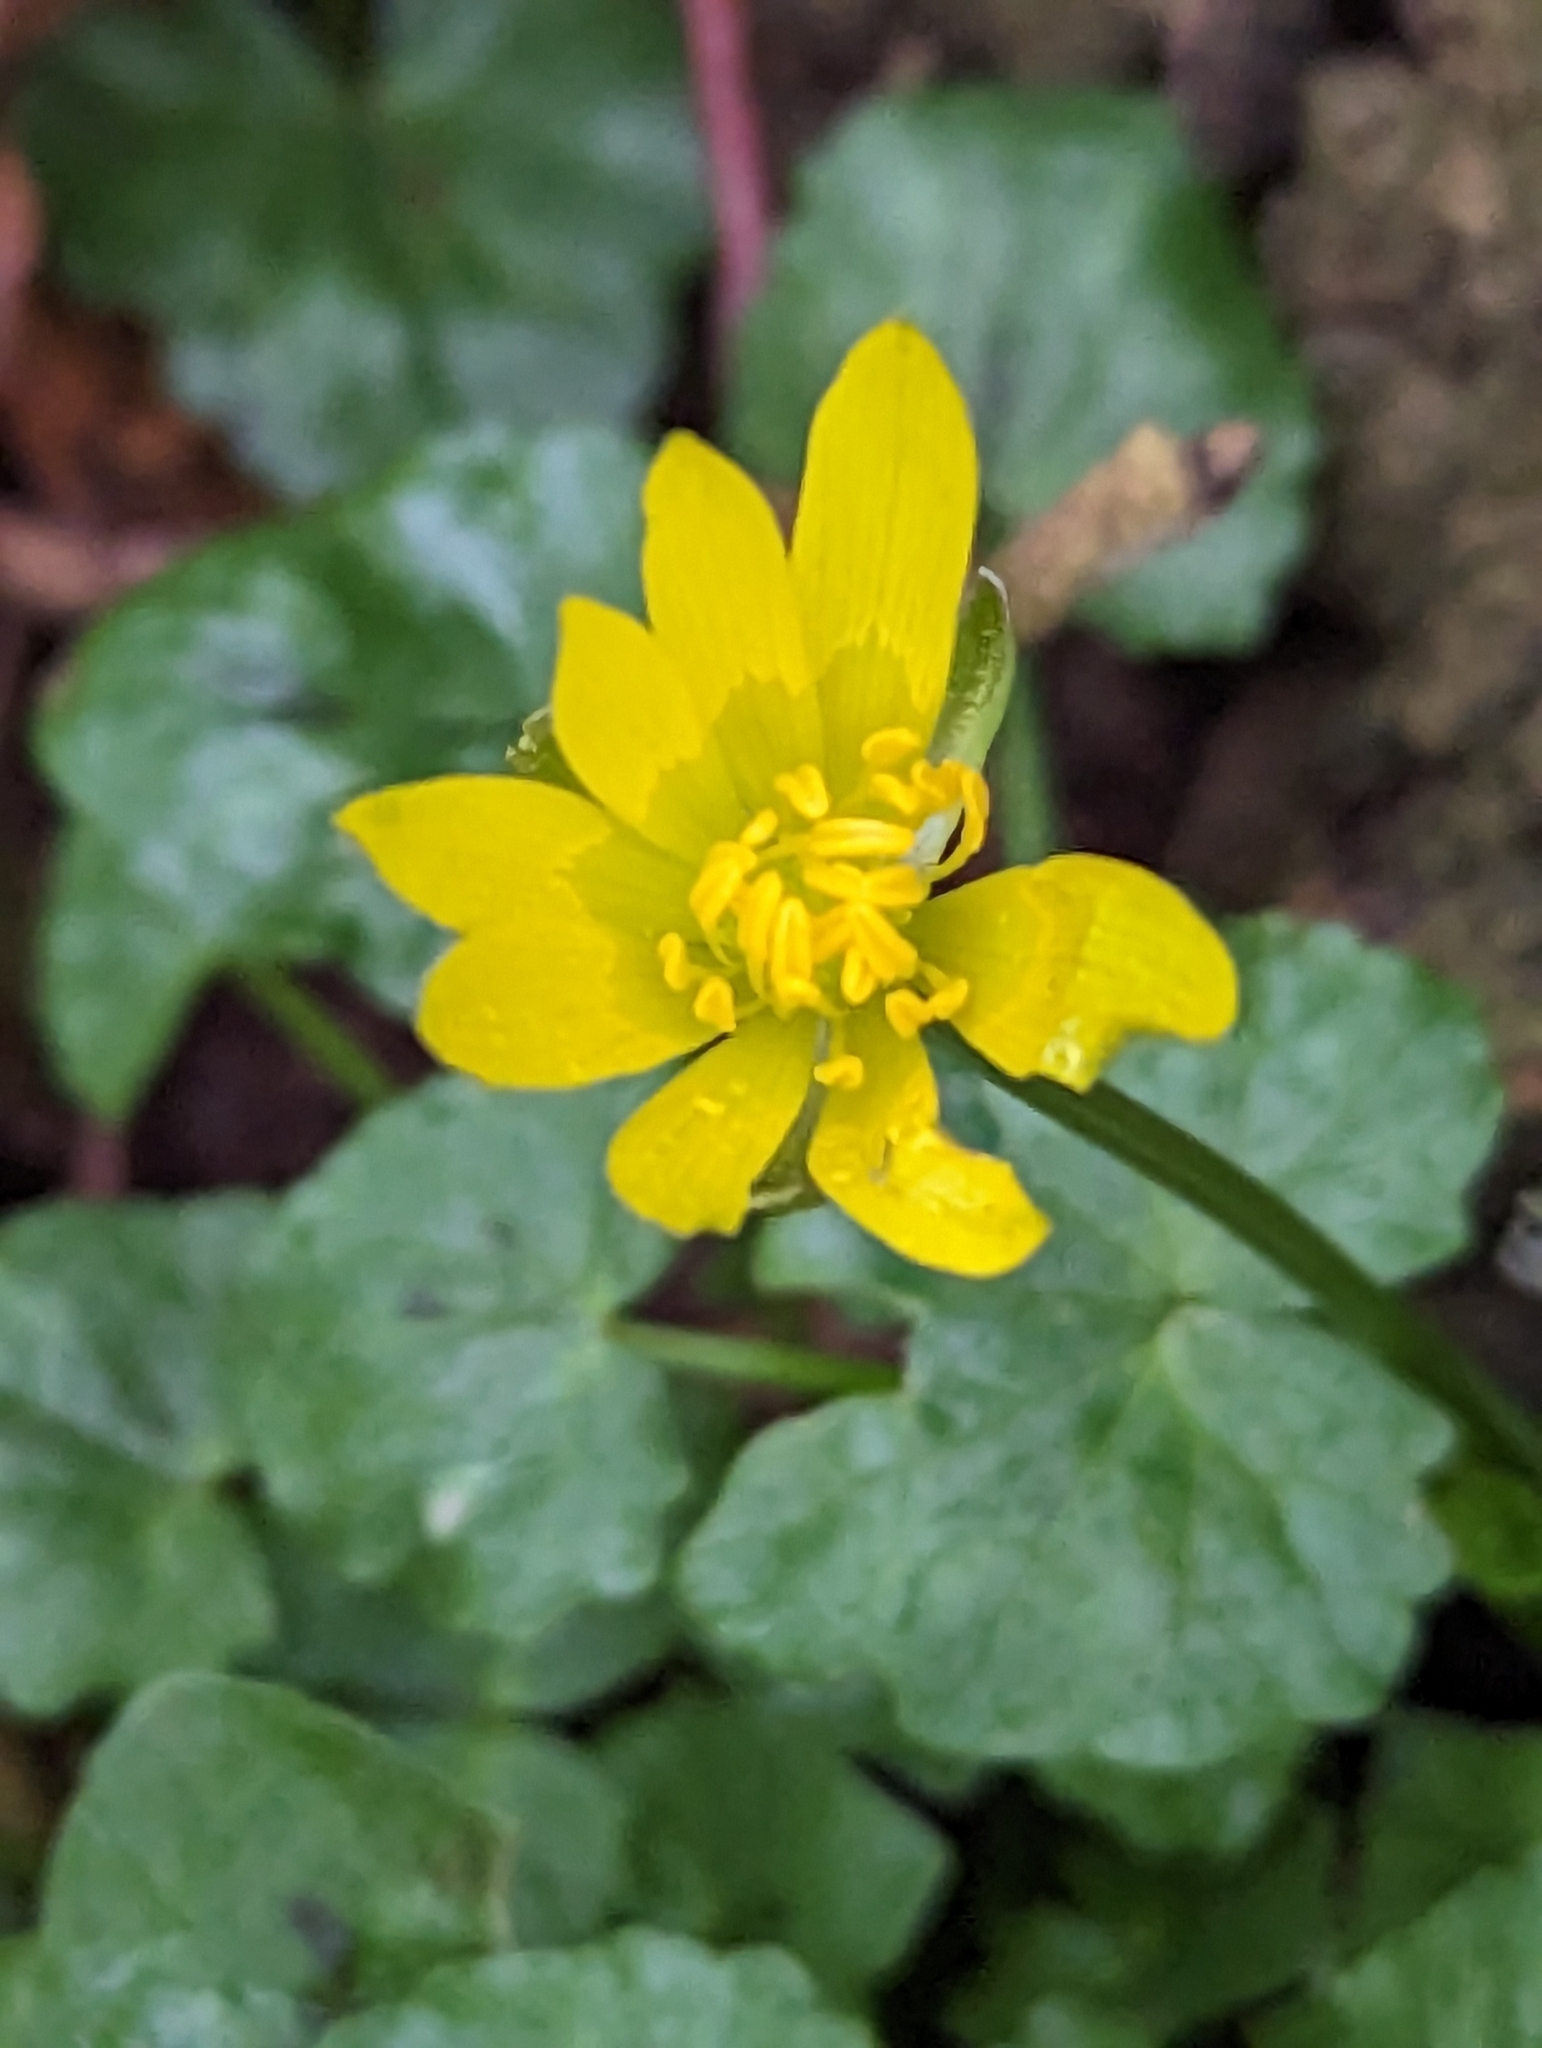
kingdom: Plantae
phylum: Tracheophyta
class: Magnoliopsida
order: Ranunculales
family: Ranunculaceae
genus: Ficaria
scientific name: Ficaria verna
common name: Lesser celandine
